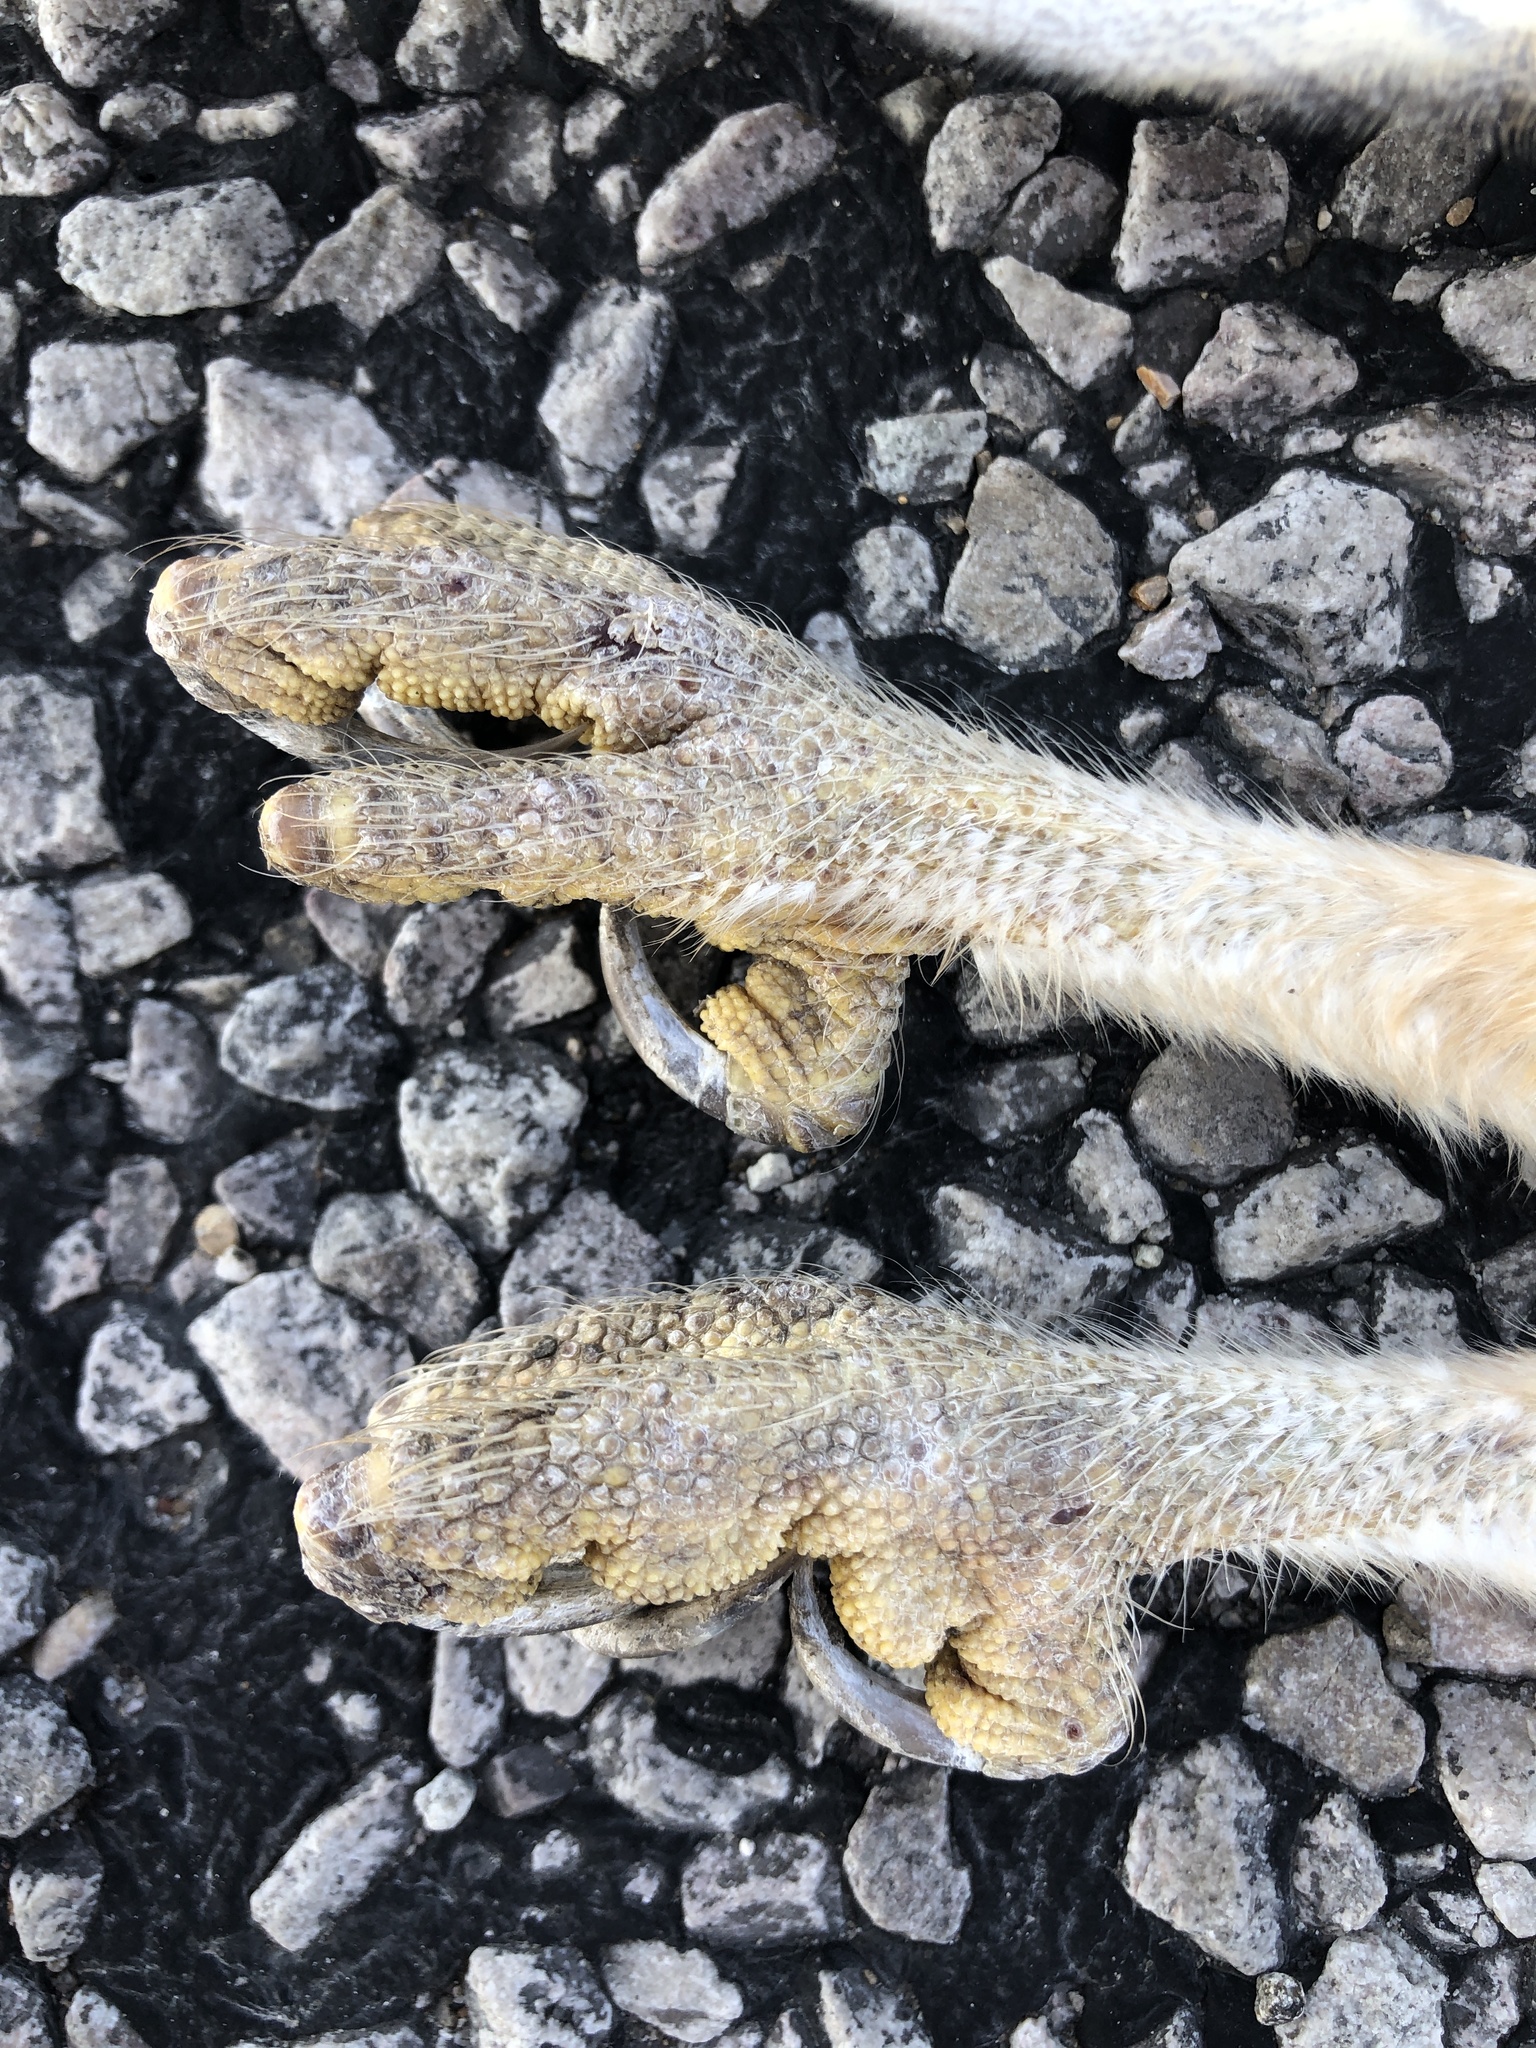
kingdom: Animalia
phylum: Chordata
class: Aves
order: Strigiformes
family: Tytonidae
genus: Tyto
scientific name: Tyto alba
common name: Barn owl
